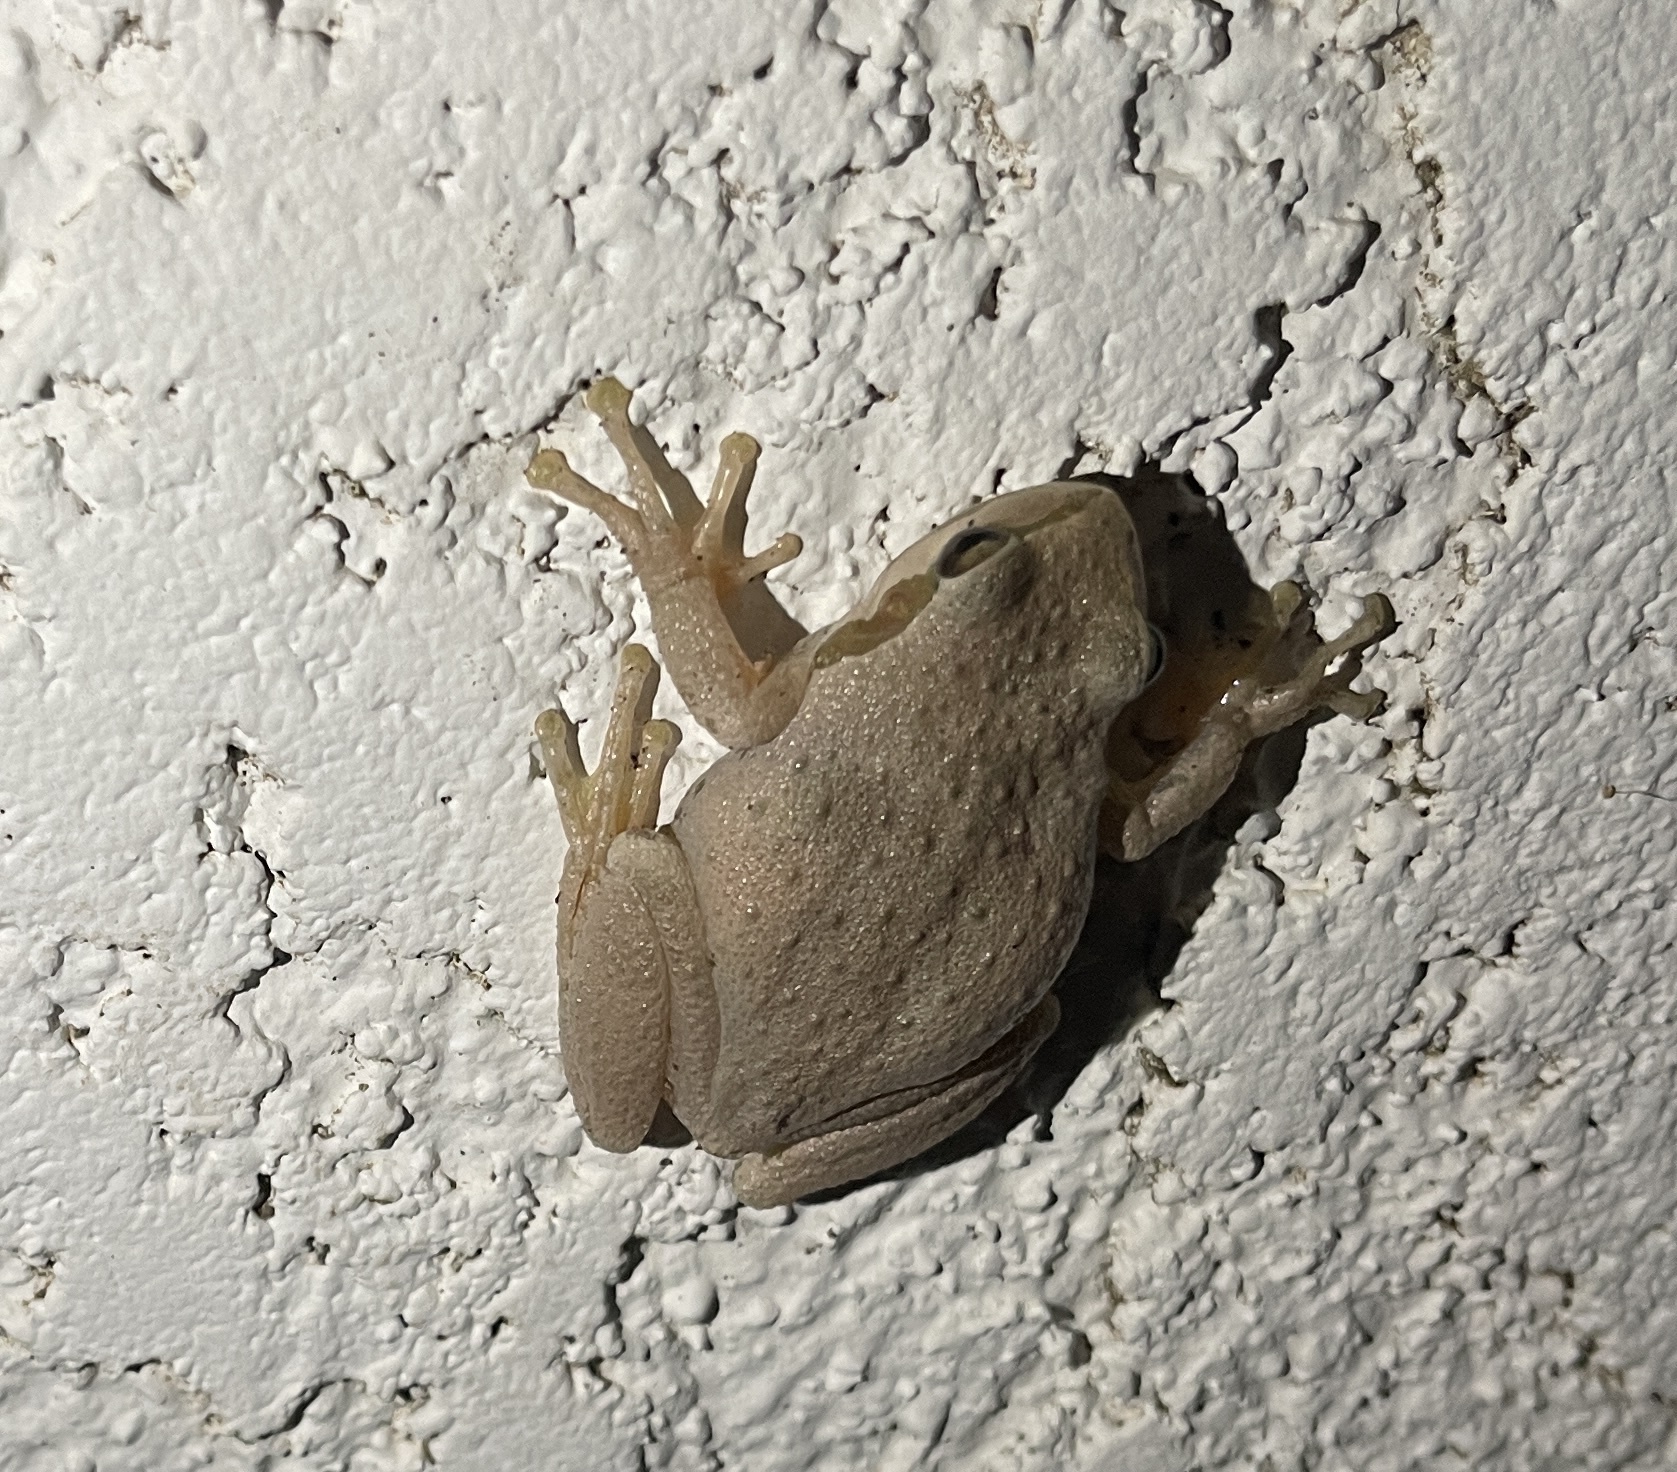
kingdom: Animalia
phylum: Chordata
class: Amphibia
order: Anura
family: Hylidae
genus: Pseudacris
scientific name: Pseudacris regilla
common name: Pacific chorus frog
